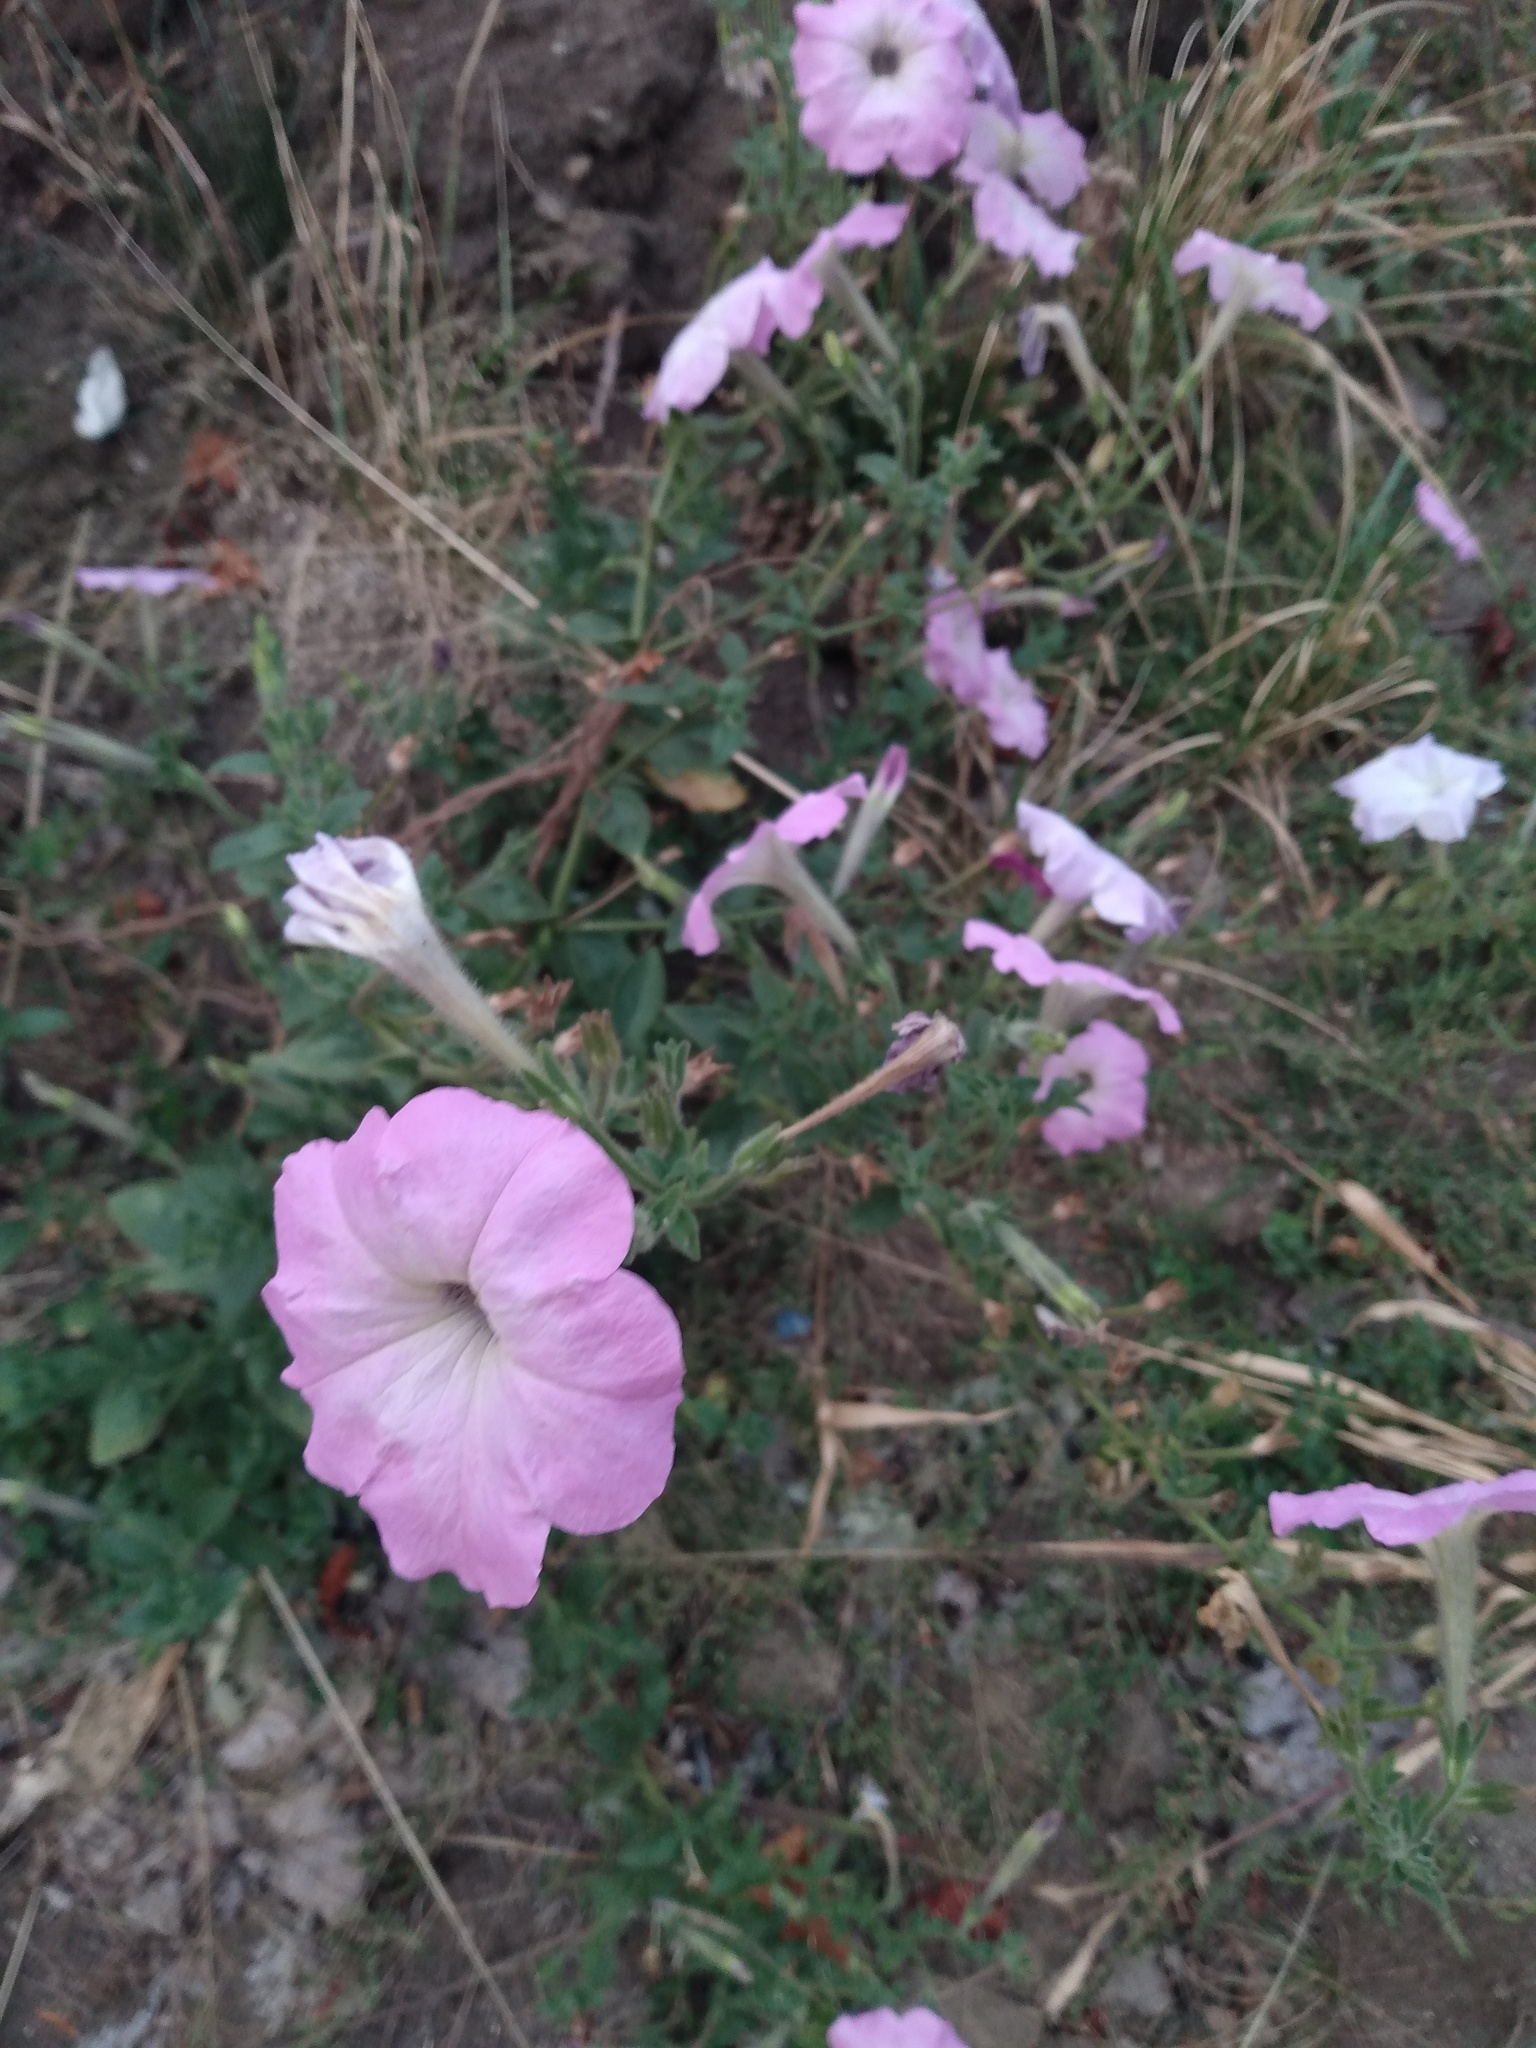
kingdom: Plantae
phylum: Tracheophyta
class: Magnoliopsida
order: Solanales
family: Solanaceae
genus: Petunia
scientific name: Petunia atkinsiana
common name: Petunia
